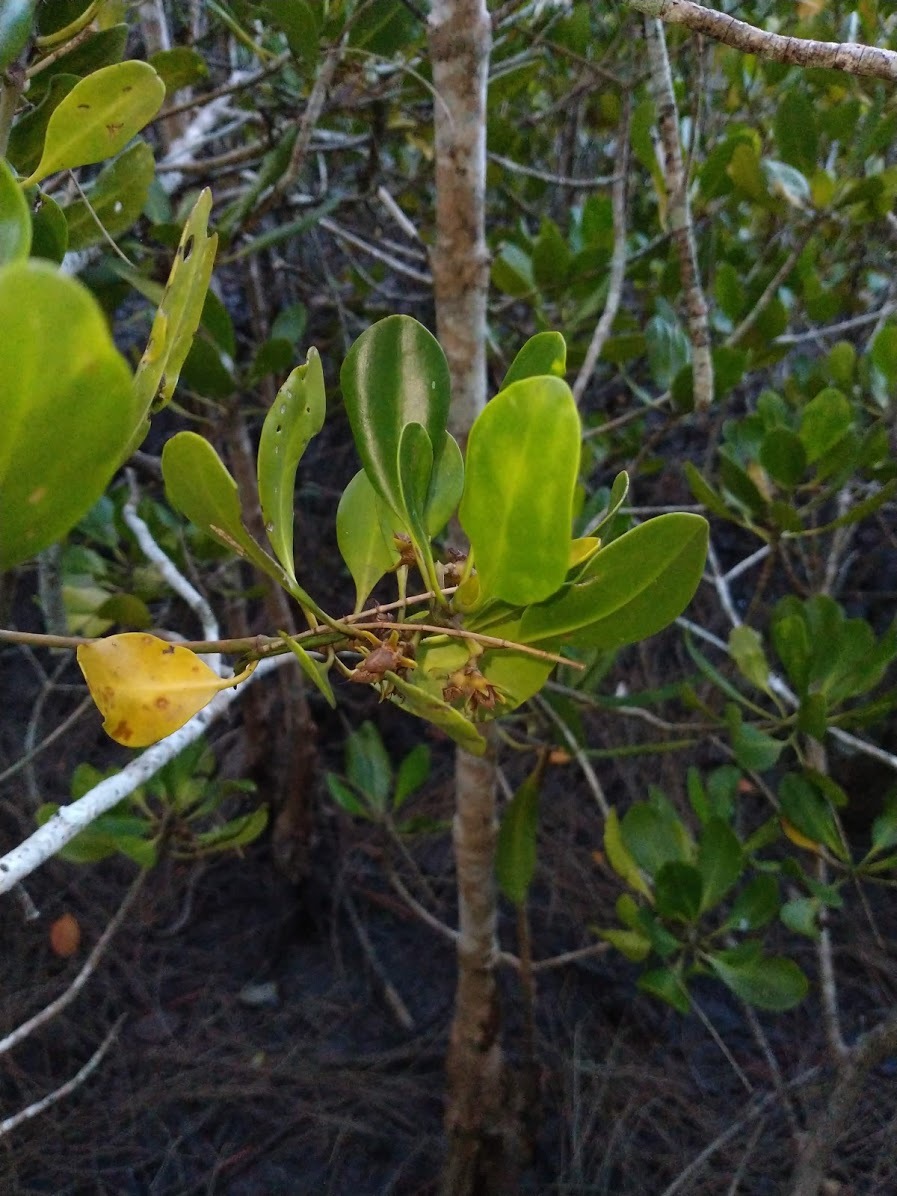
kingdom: Plantae
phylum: Tracheophyta
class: Magnoliopsida
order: Malpighiales
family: Rhizophoraceae
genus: Ceriops
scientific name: Ceriops australis
